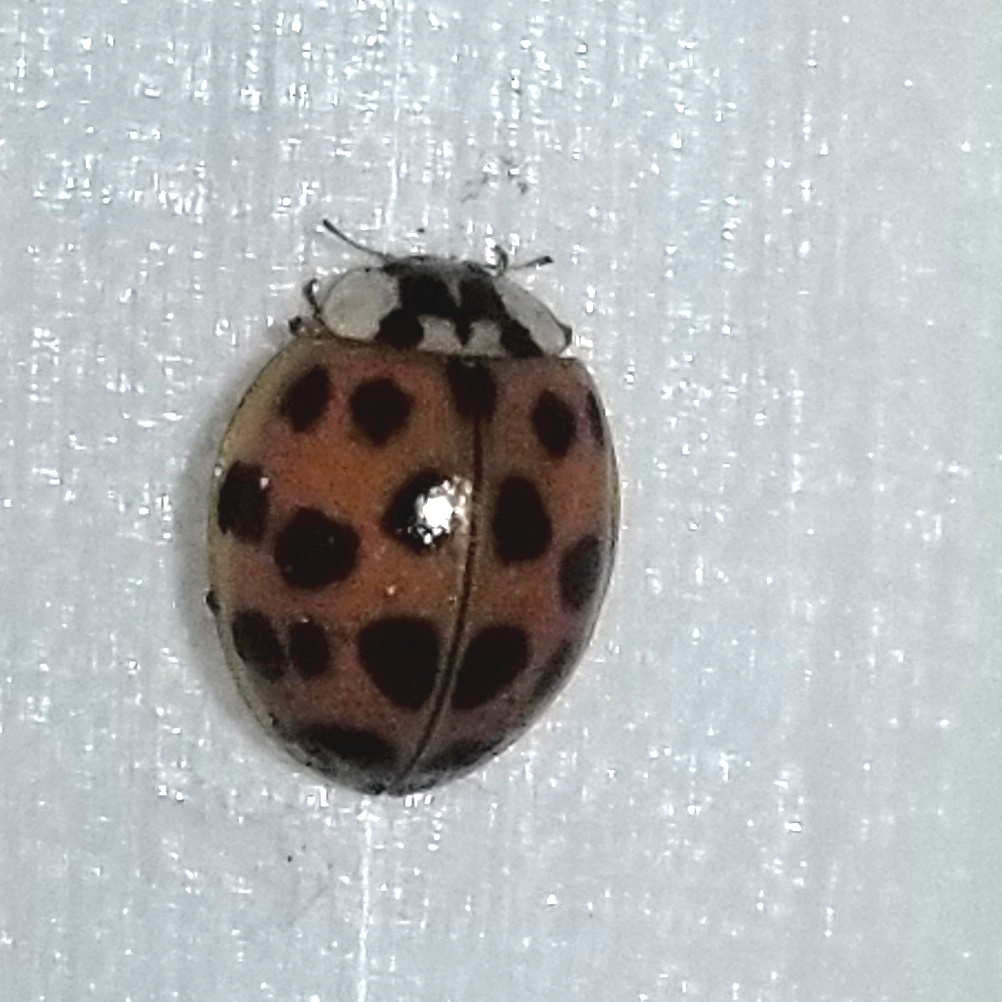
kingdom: Animalia
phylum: Arthropoda
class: Insecta
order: Coleoptera
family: Coccinellidae
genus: Harmonia
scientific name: Harmonia axyridis
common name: Harlequin ladybird
